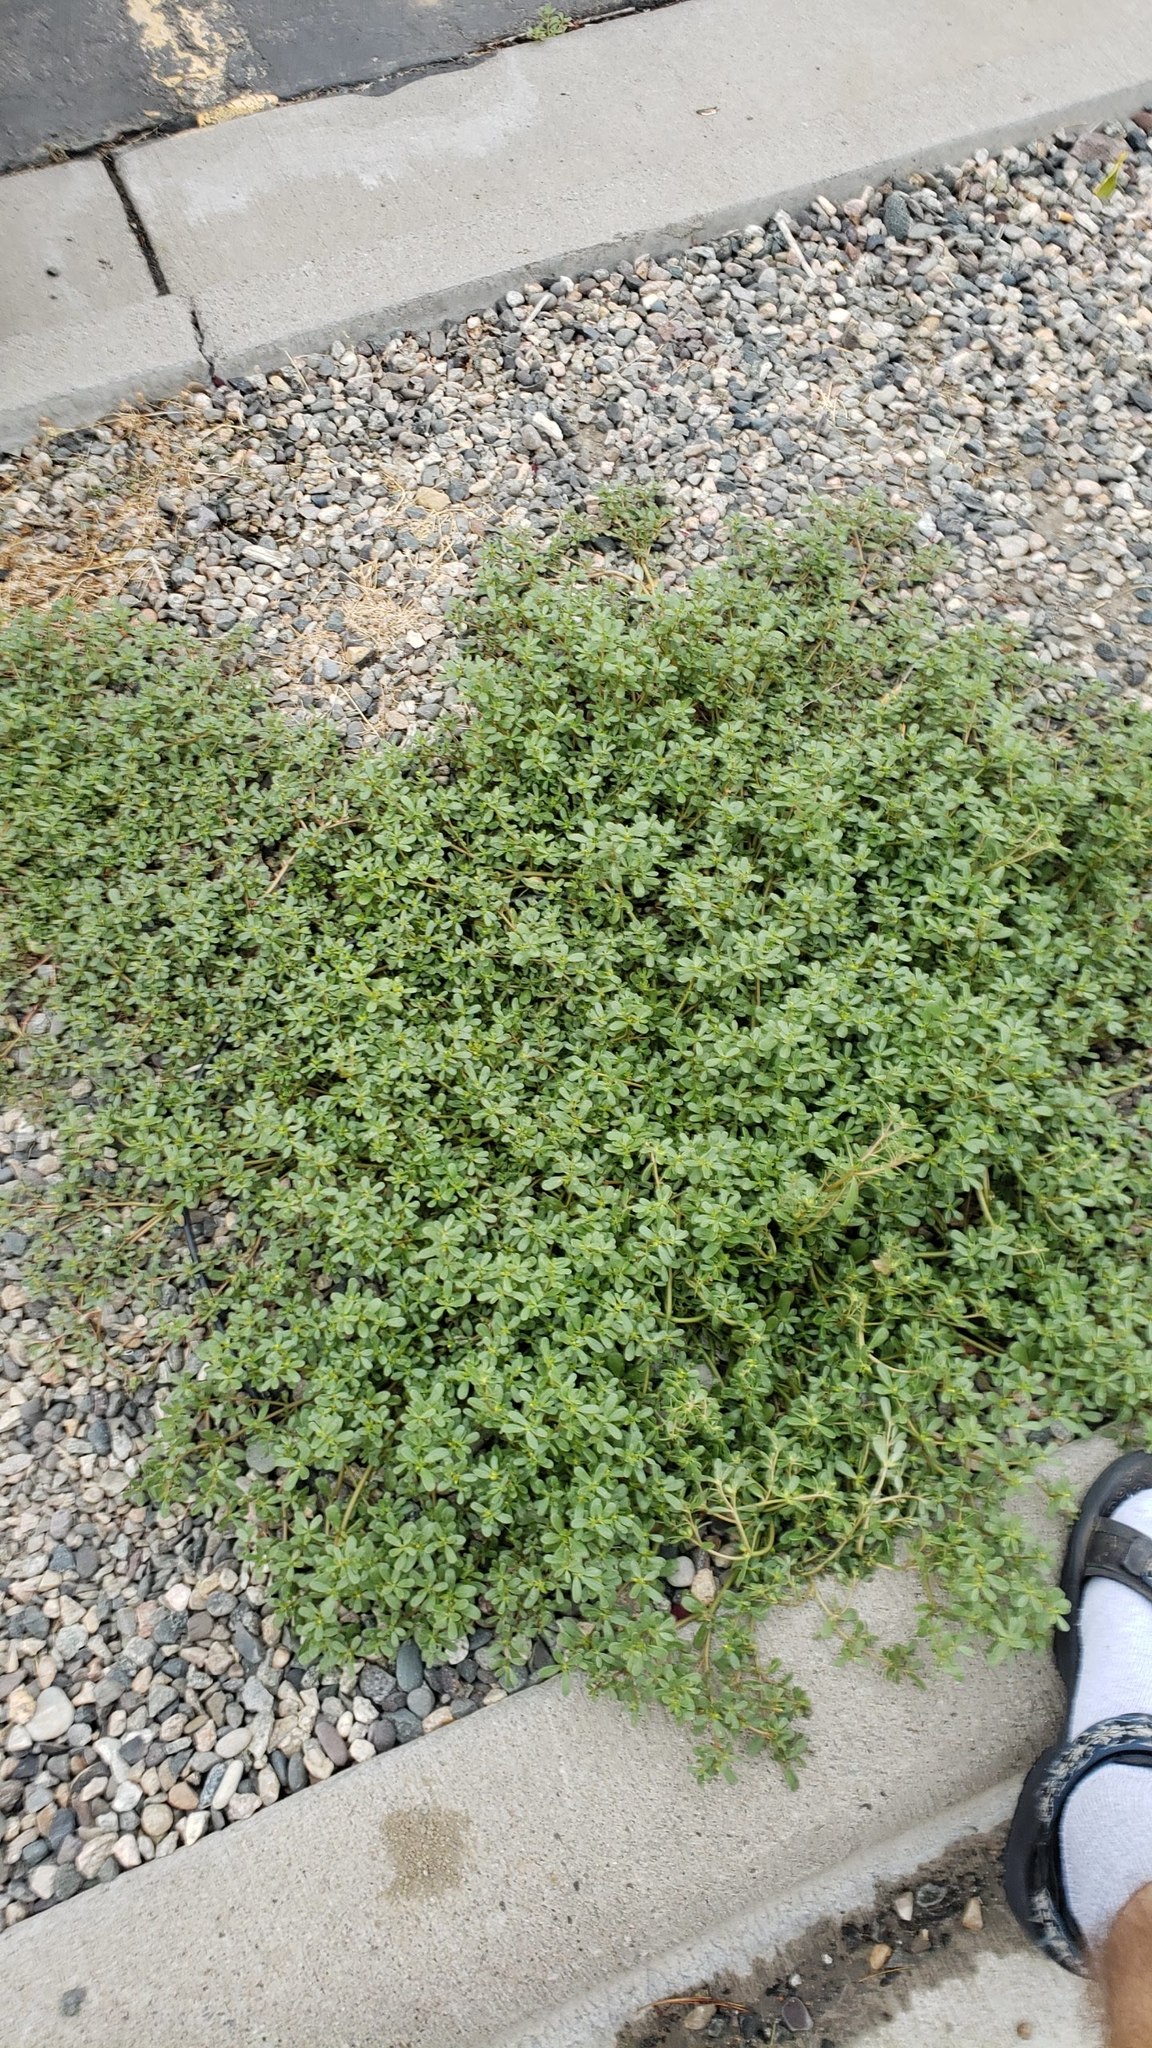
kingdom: Plantae
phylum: Tracheophyta
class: Magnoliopsida
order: Caryophyllales
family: Portulacaceae
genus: Portulaca
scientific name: Portulaca oleracea
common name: Common purslane
